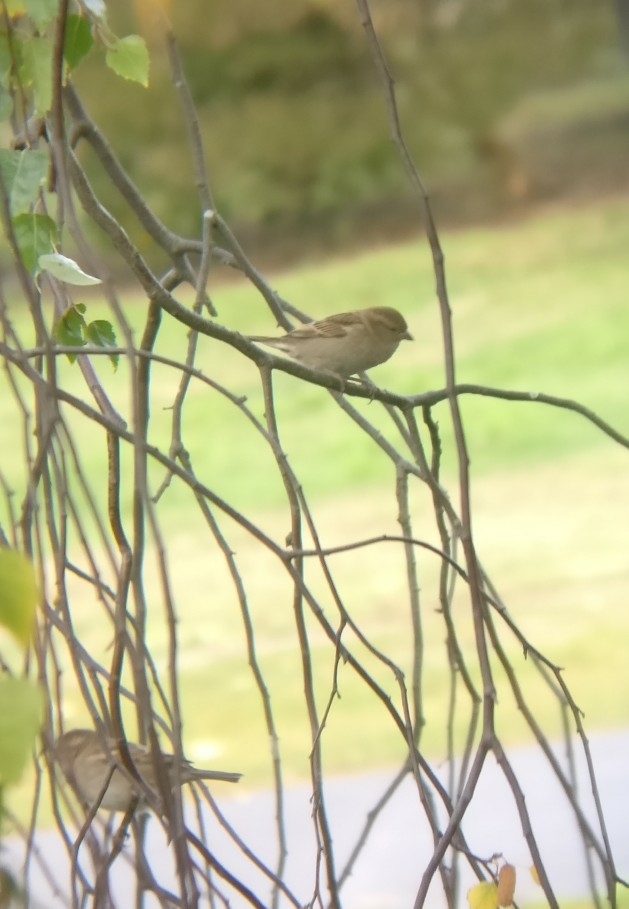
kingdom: Animalia
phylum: Chordata
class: Aves
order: Passeriformes
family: Passeridae
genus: Passer
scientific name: Passer domesticus
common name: House sparrow
